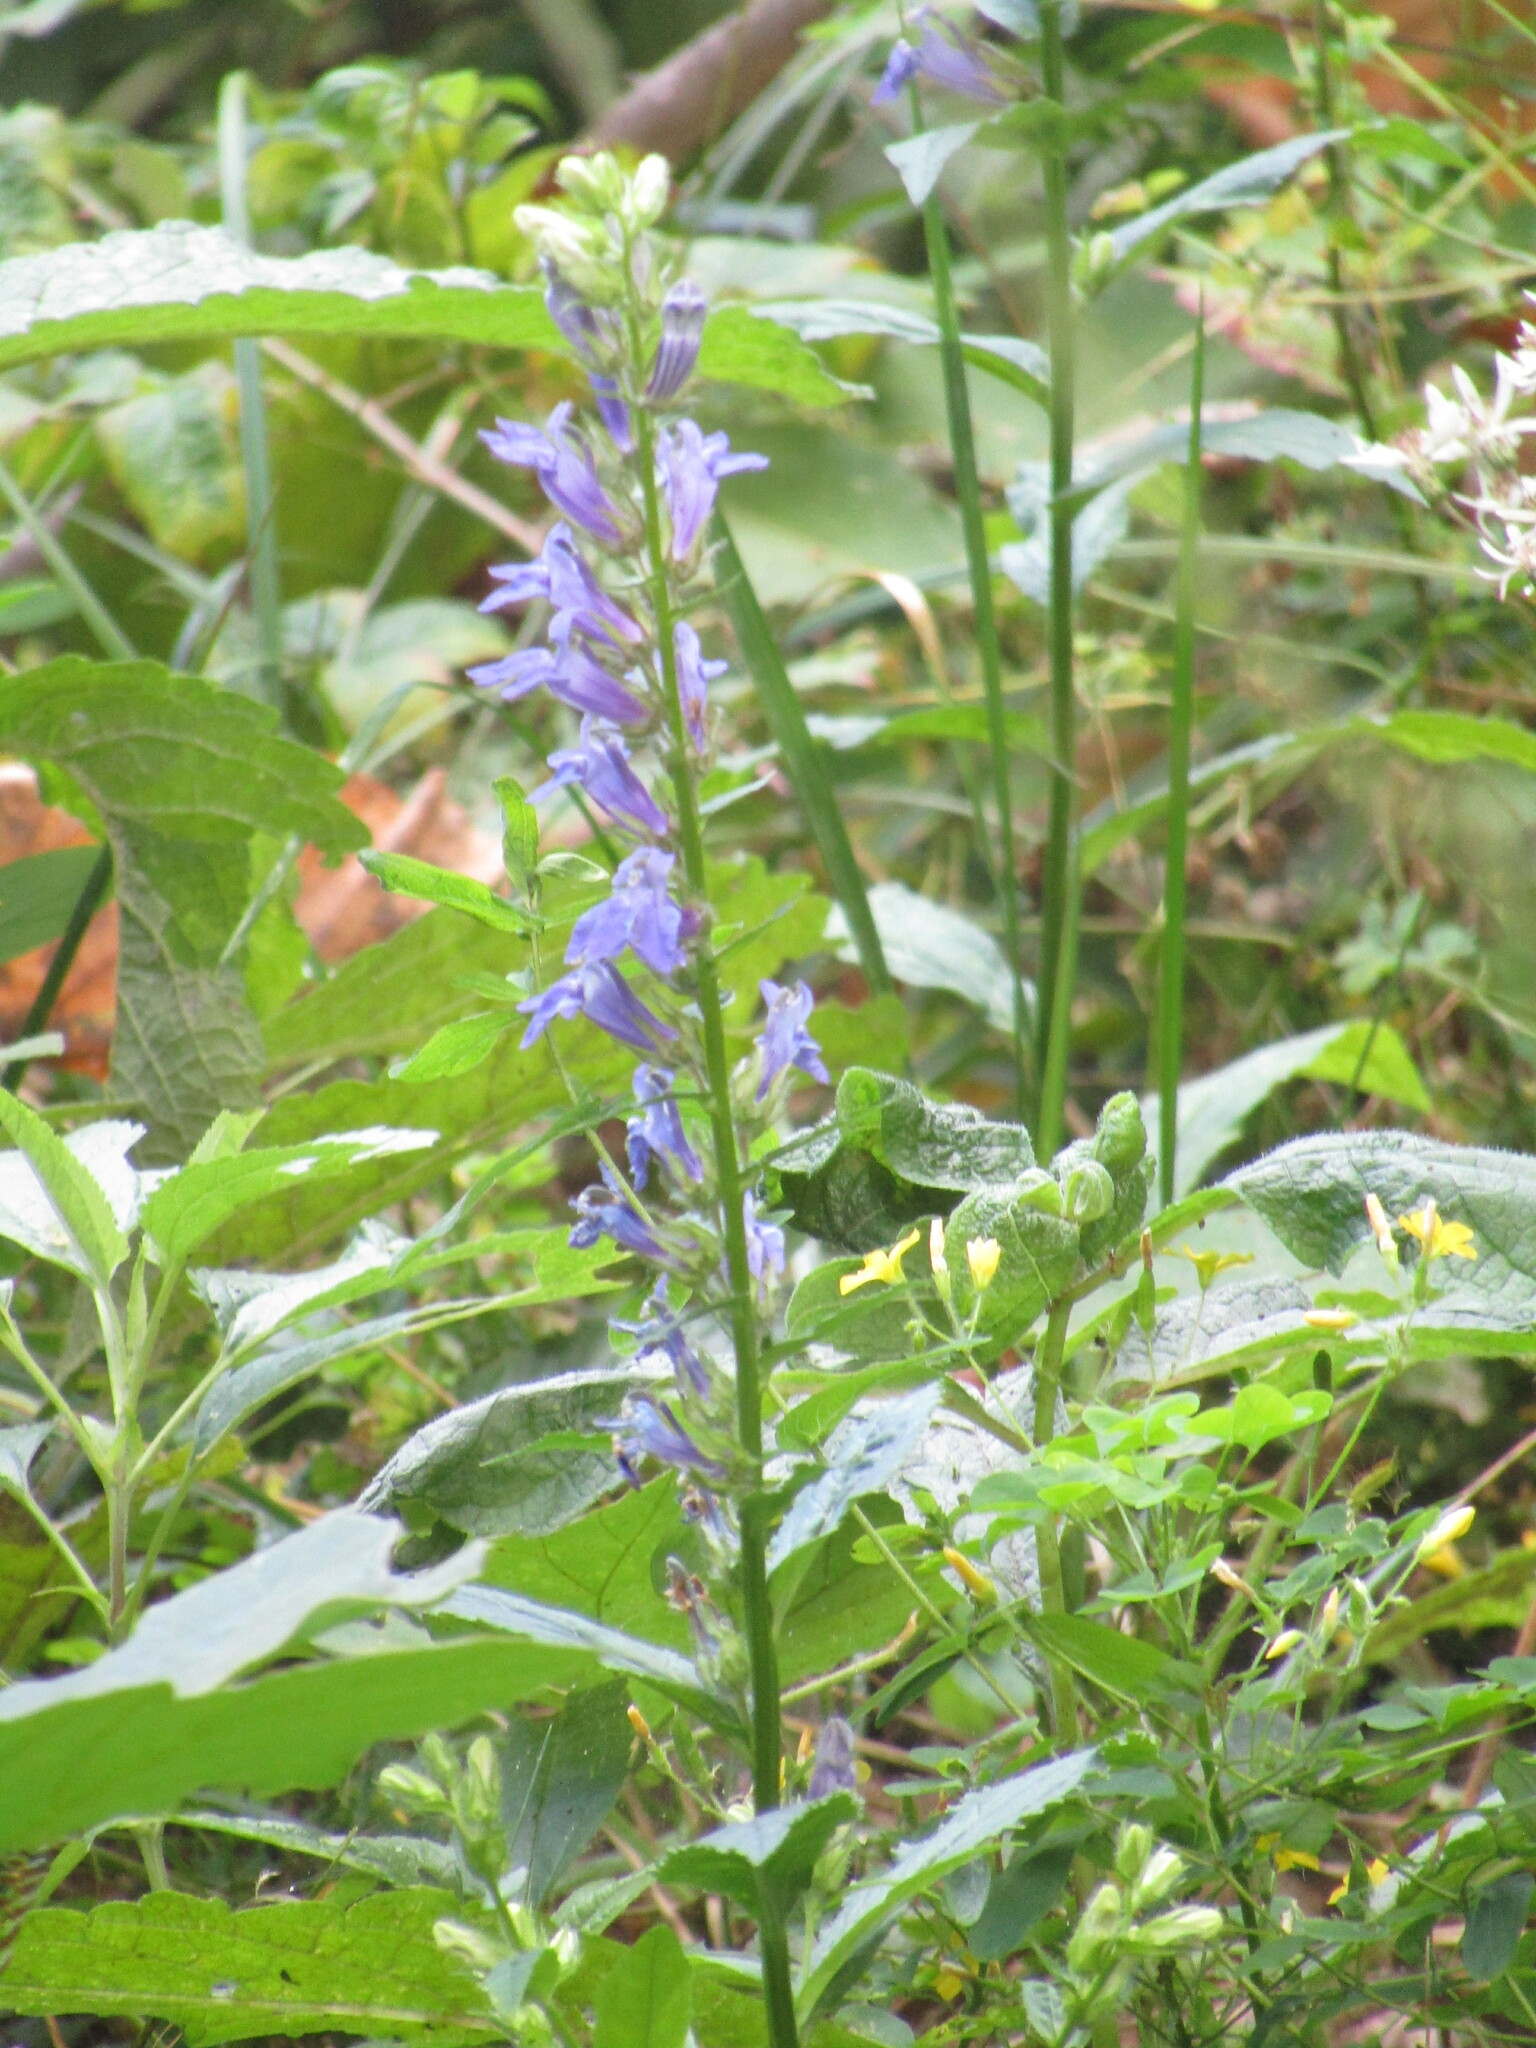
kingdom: Plantae
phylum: Tracheophyta
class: Magnoliopsida
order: Asterales
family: Campanulaceae
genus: Lobelia
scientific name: Lobelia siphilitica
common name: Great lobelia
